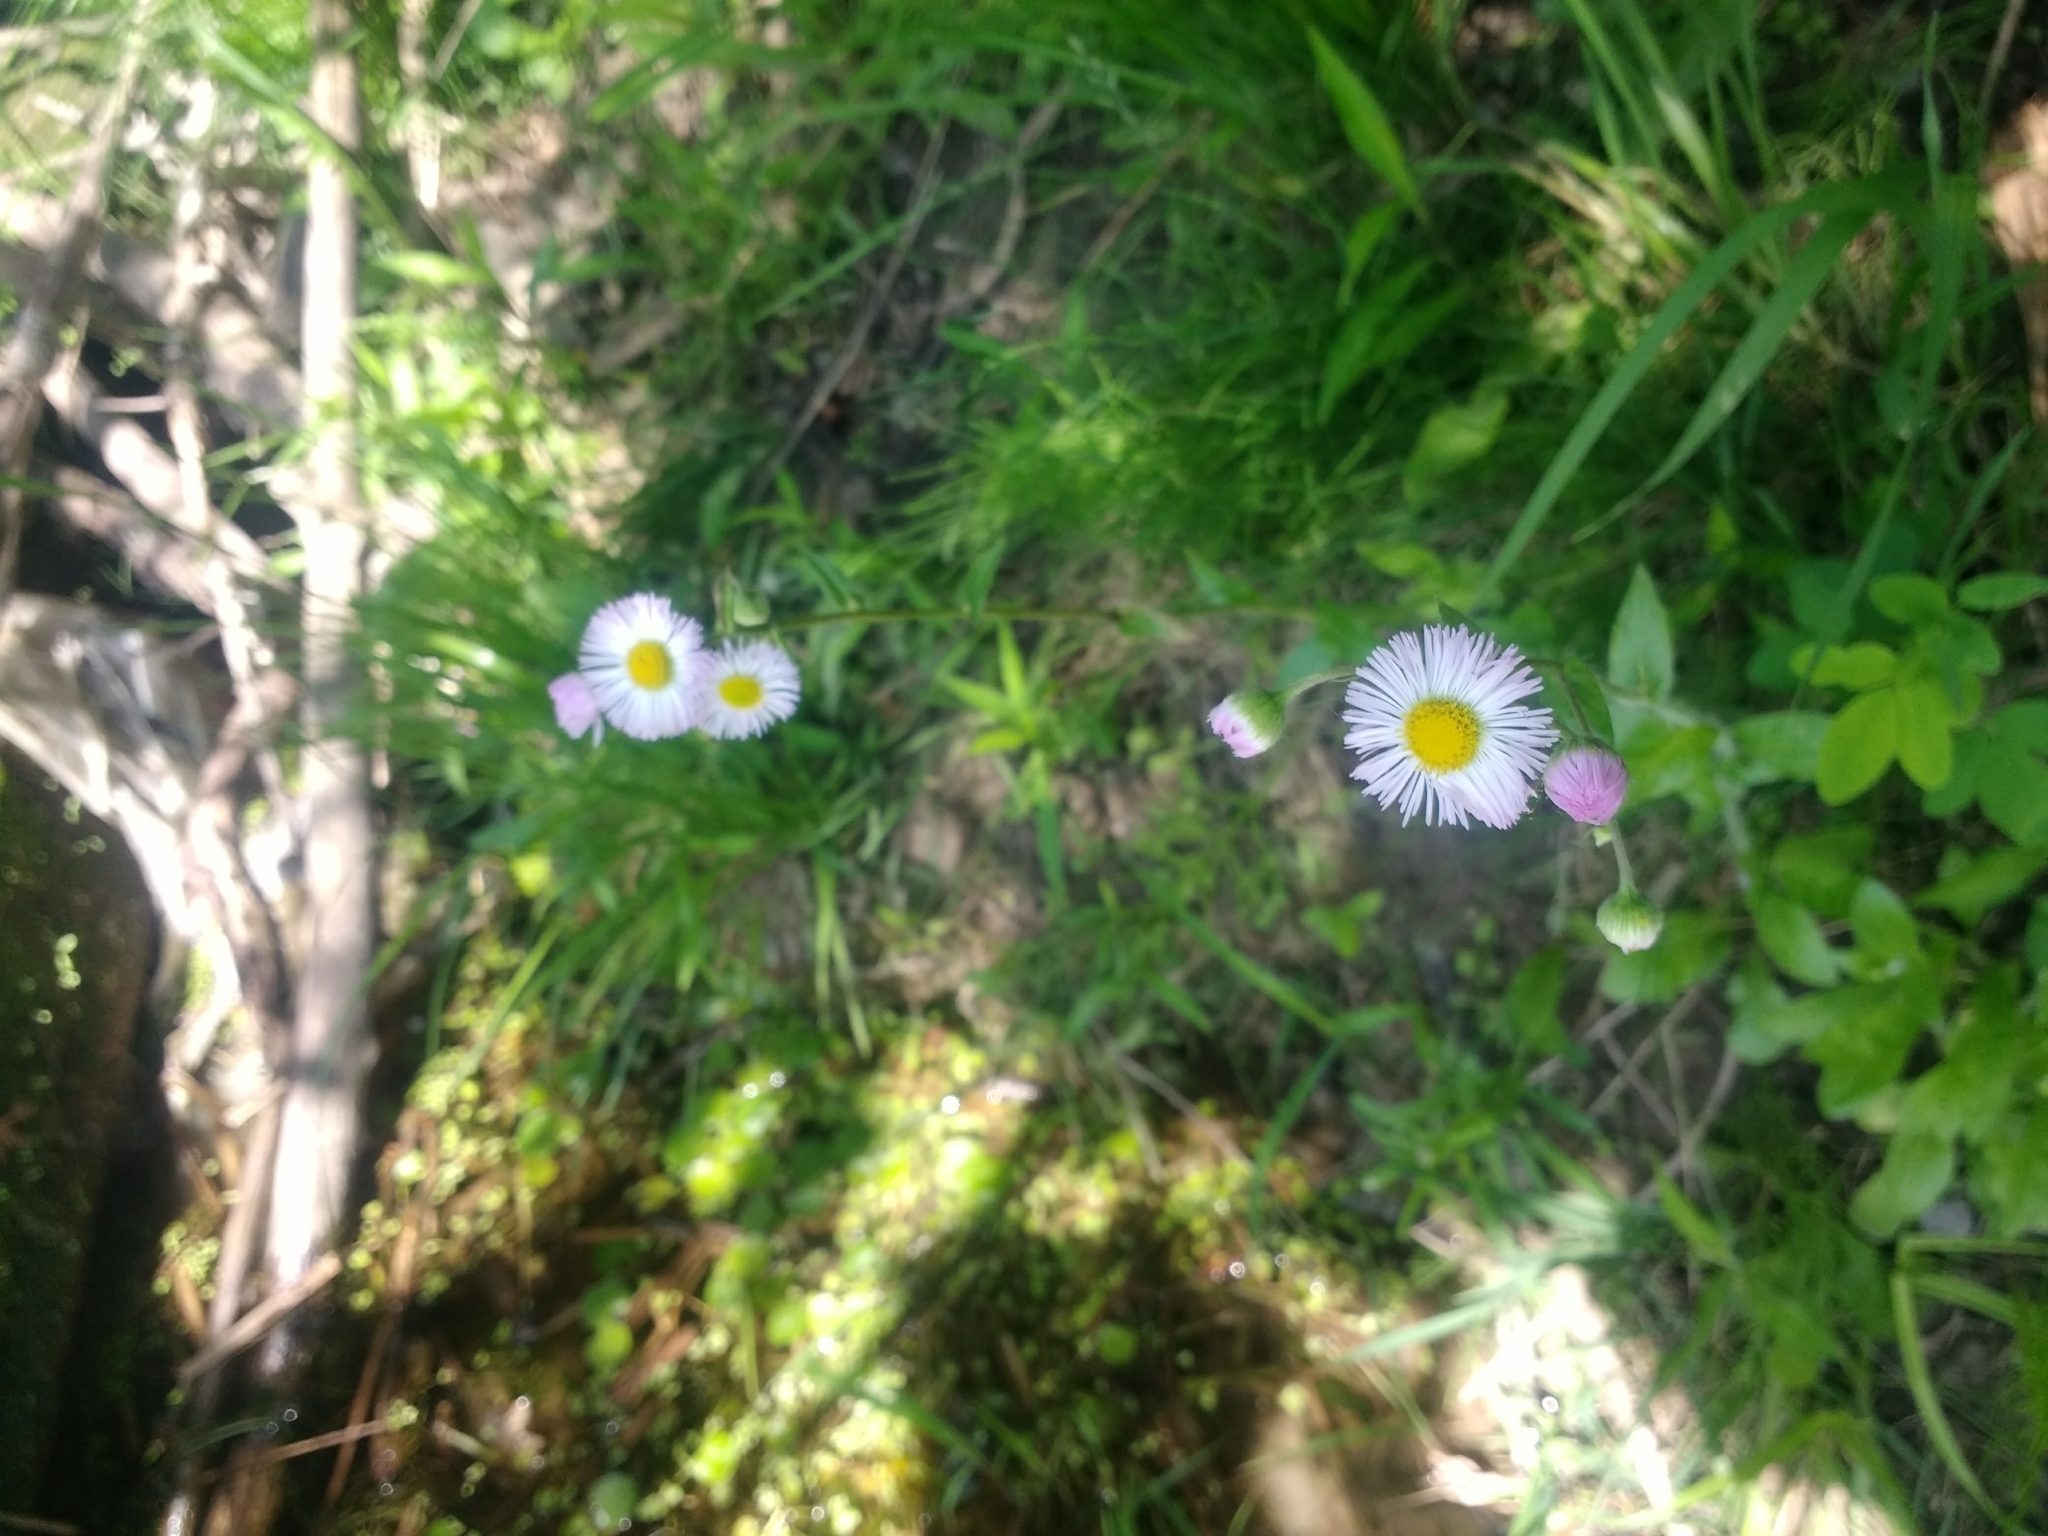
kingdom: Plantae
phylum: Tracheophyta
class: Magnoliopsida
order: Asterales
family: Asteraceae
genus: Erigeron
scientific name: Erigeron philadelphicus
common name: Robin's-plantain
